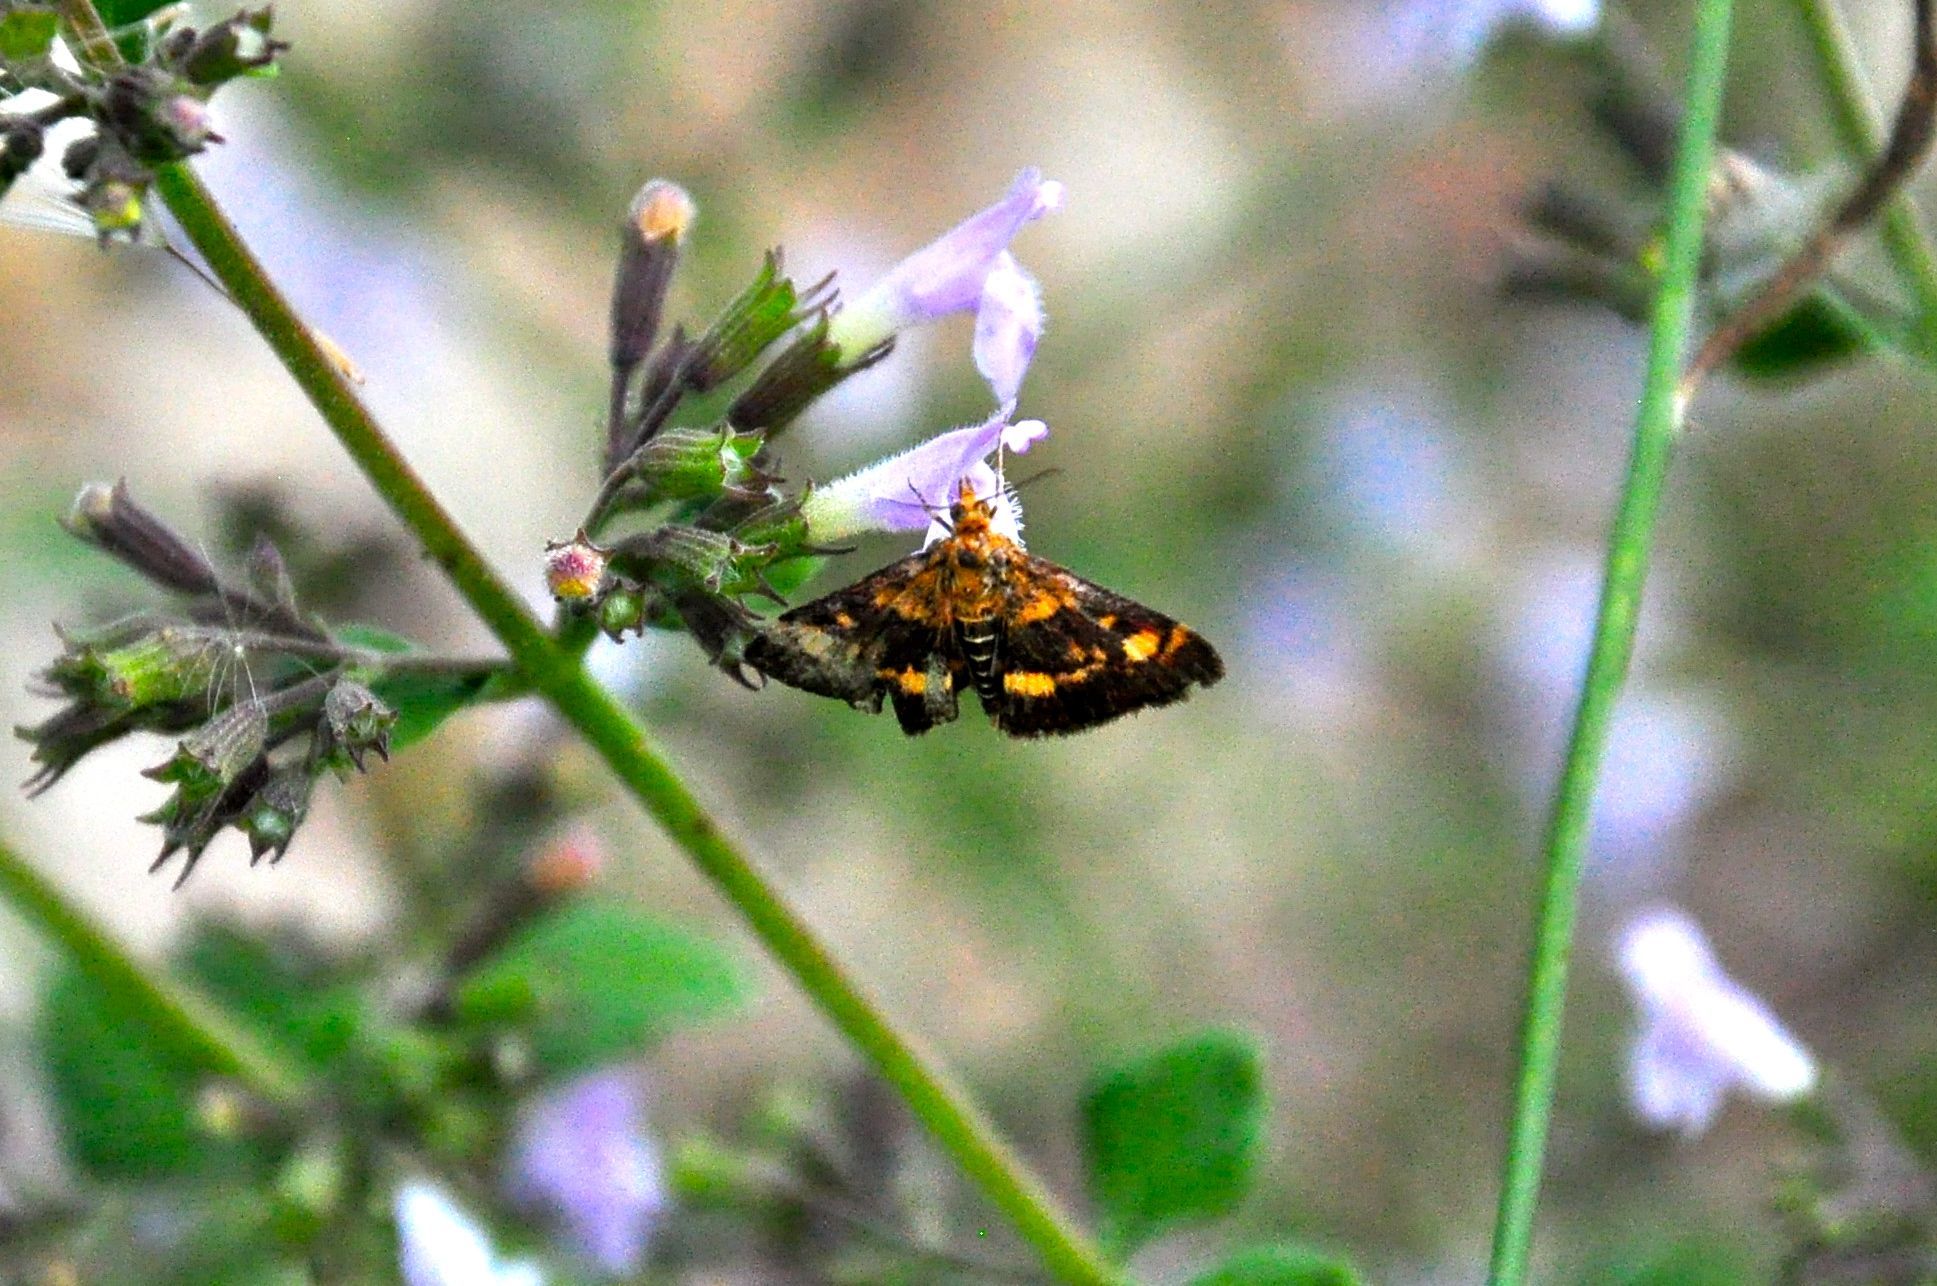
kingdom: Animalia
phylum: Arthropoda
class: Insecta
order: Lepidoptera
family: Crambidae
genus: Pyrausta
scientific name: Pyrausta aurata
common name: Small purple & gold
